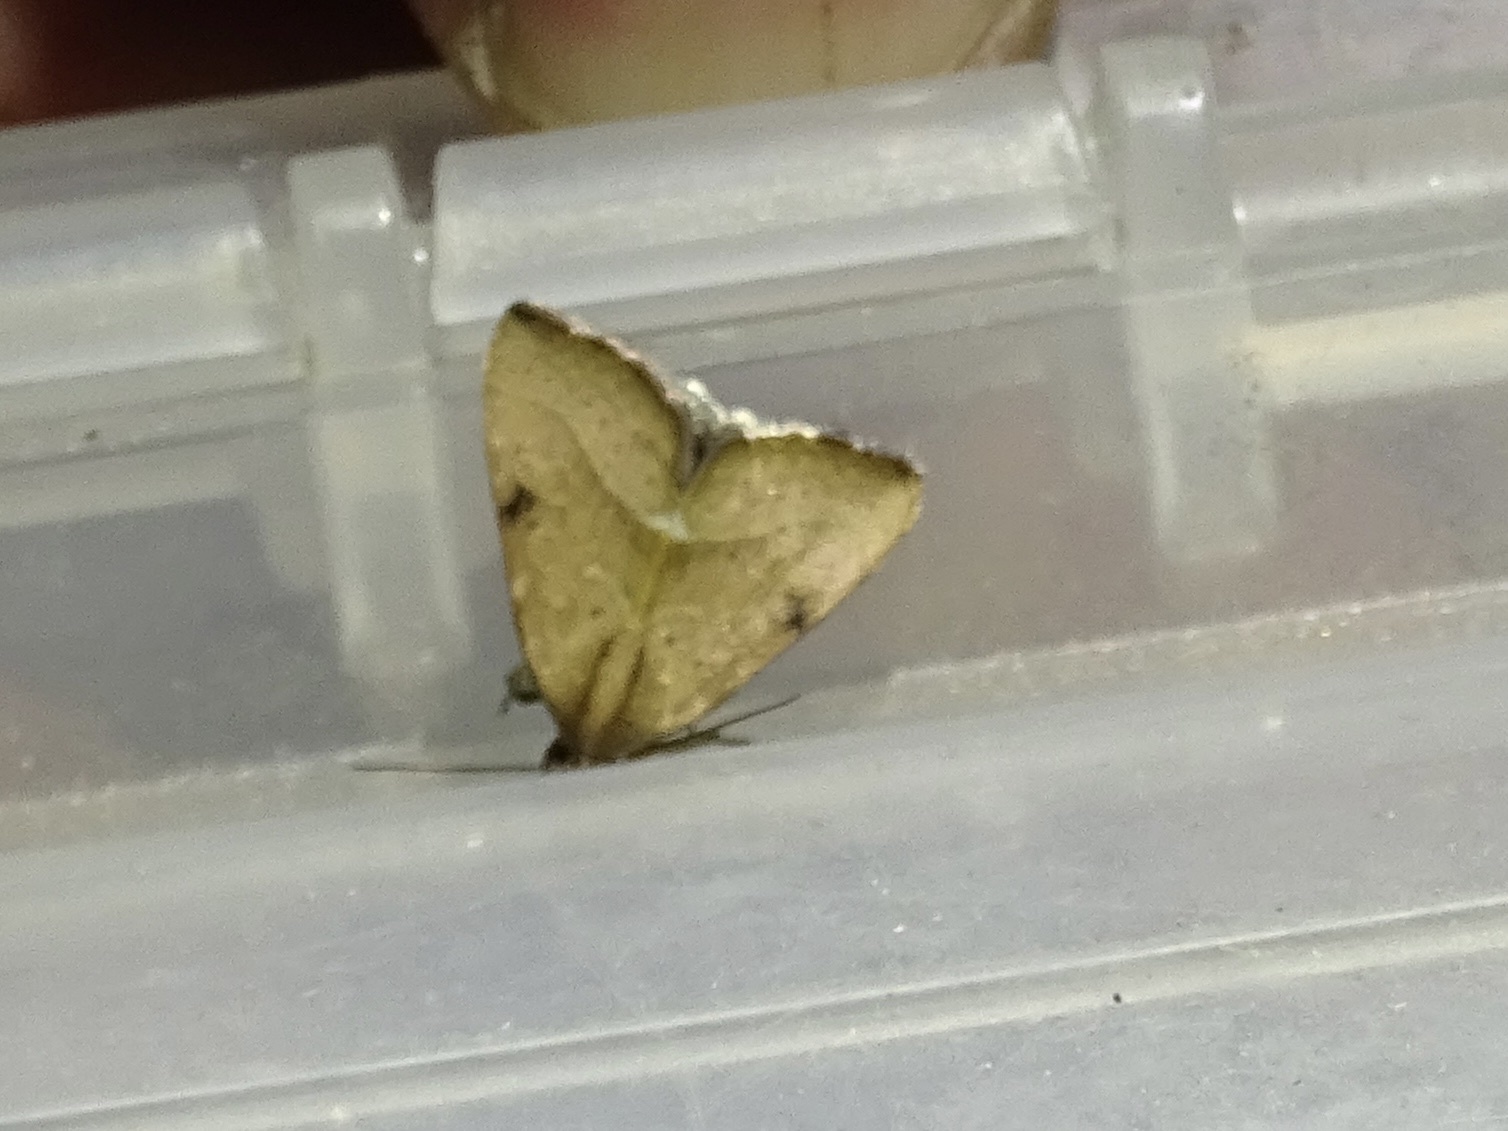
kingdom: Animalia
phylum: Arthropoda
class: Insecta
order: Lepidoptera
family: Noctuidae
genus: Galgula
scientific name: Galgula partita
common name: Wedgeling
